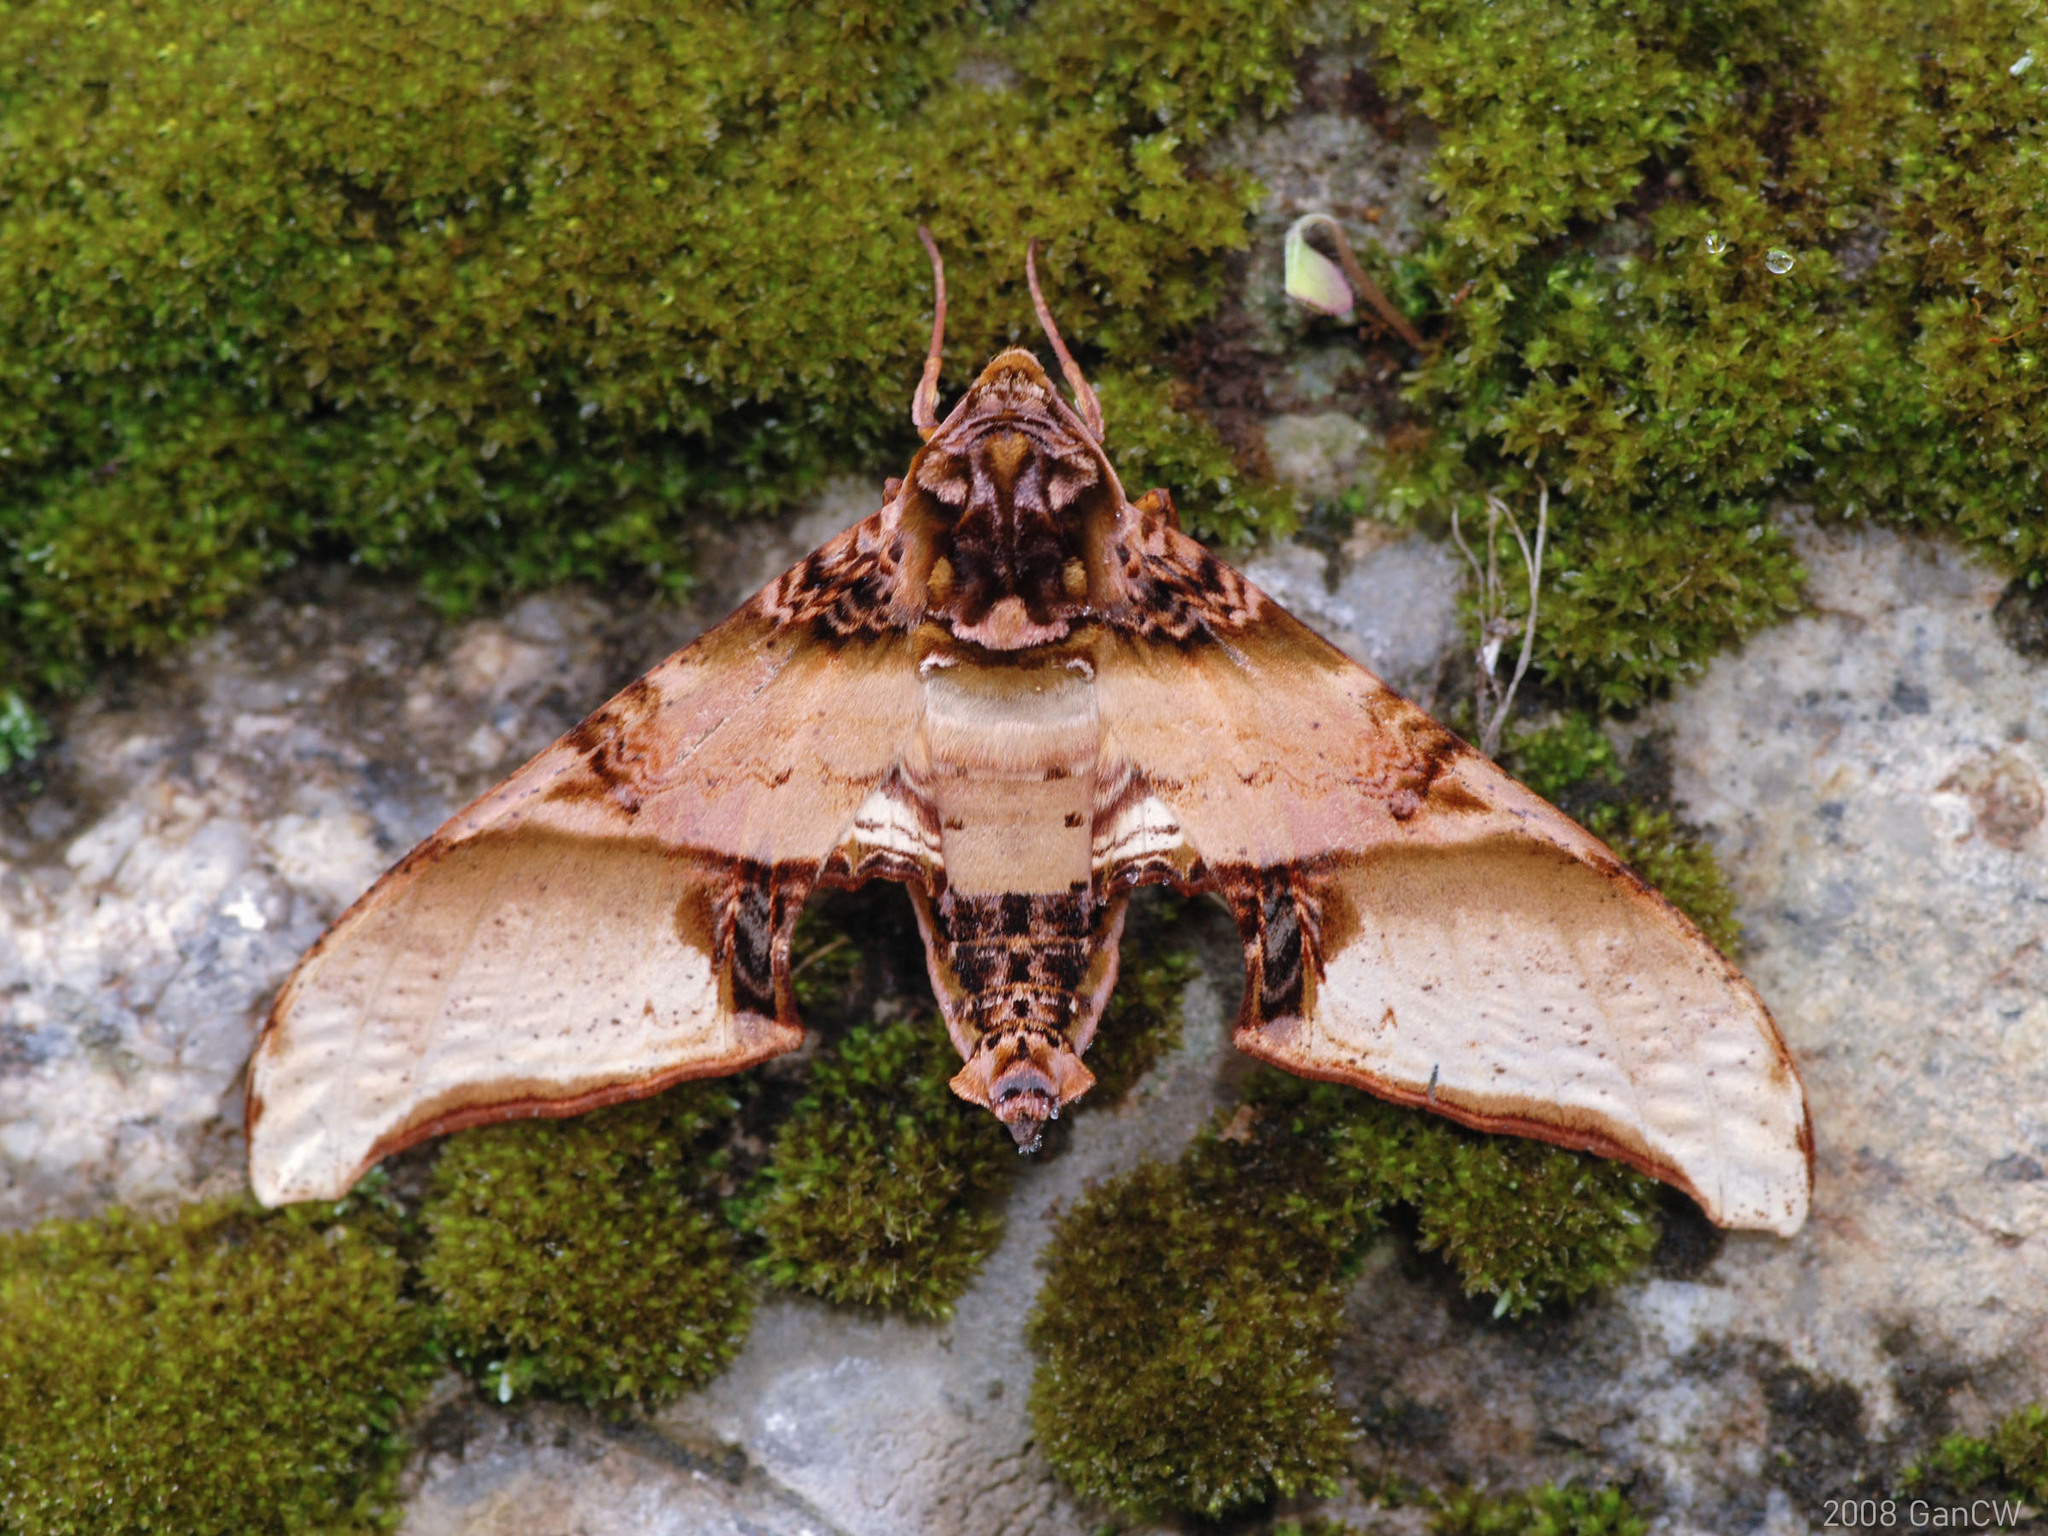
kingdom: Animalia
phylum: Arthropoda
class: Insecta
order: Lepidoptera
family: Sphingidae
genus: Amplypterus
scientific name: Amplypterus mansoni
